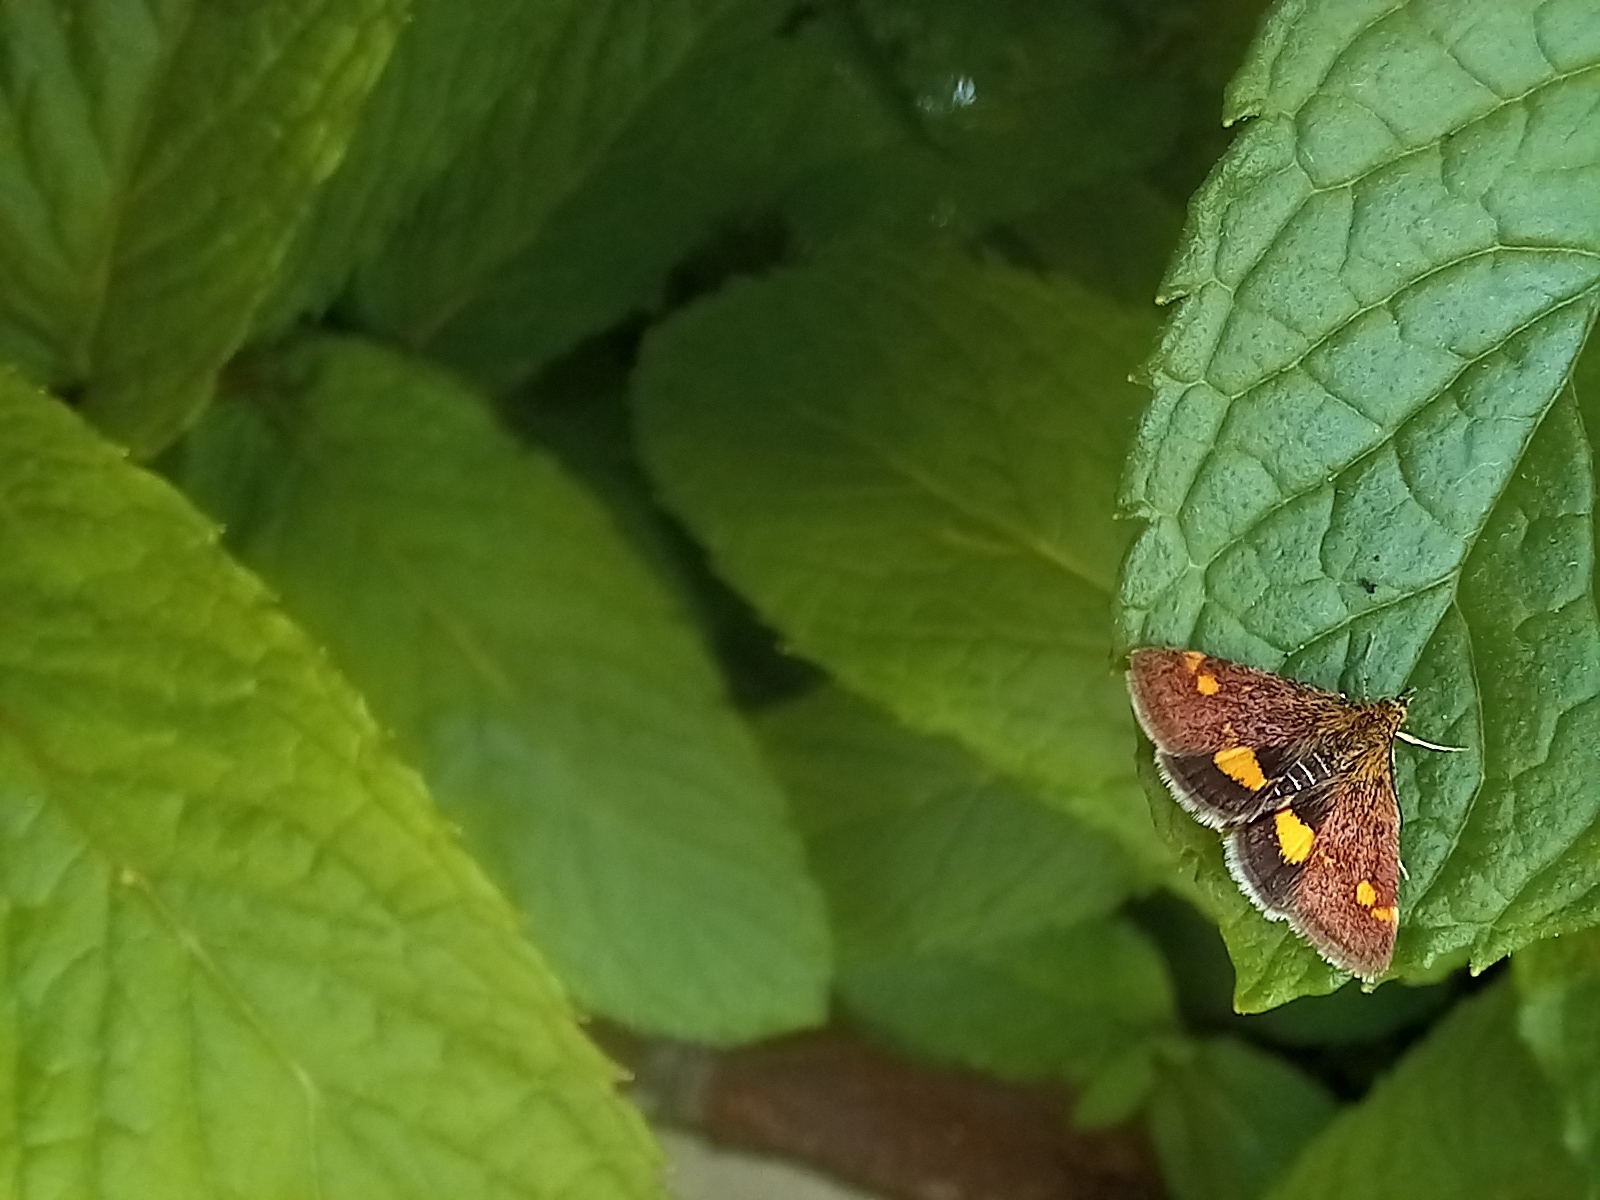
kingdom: Animalia
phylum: Arthropoda
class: Insecta
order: Lepidoptera
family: Crambidae
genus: Pyrausta
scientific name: Pyrausta aurata
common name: Small purple & gold
